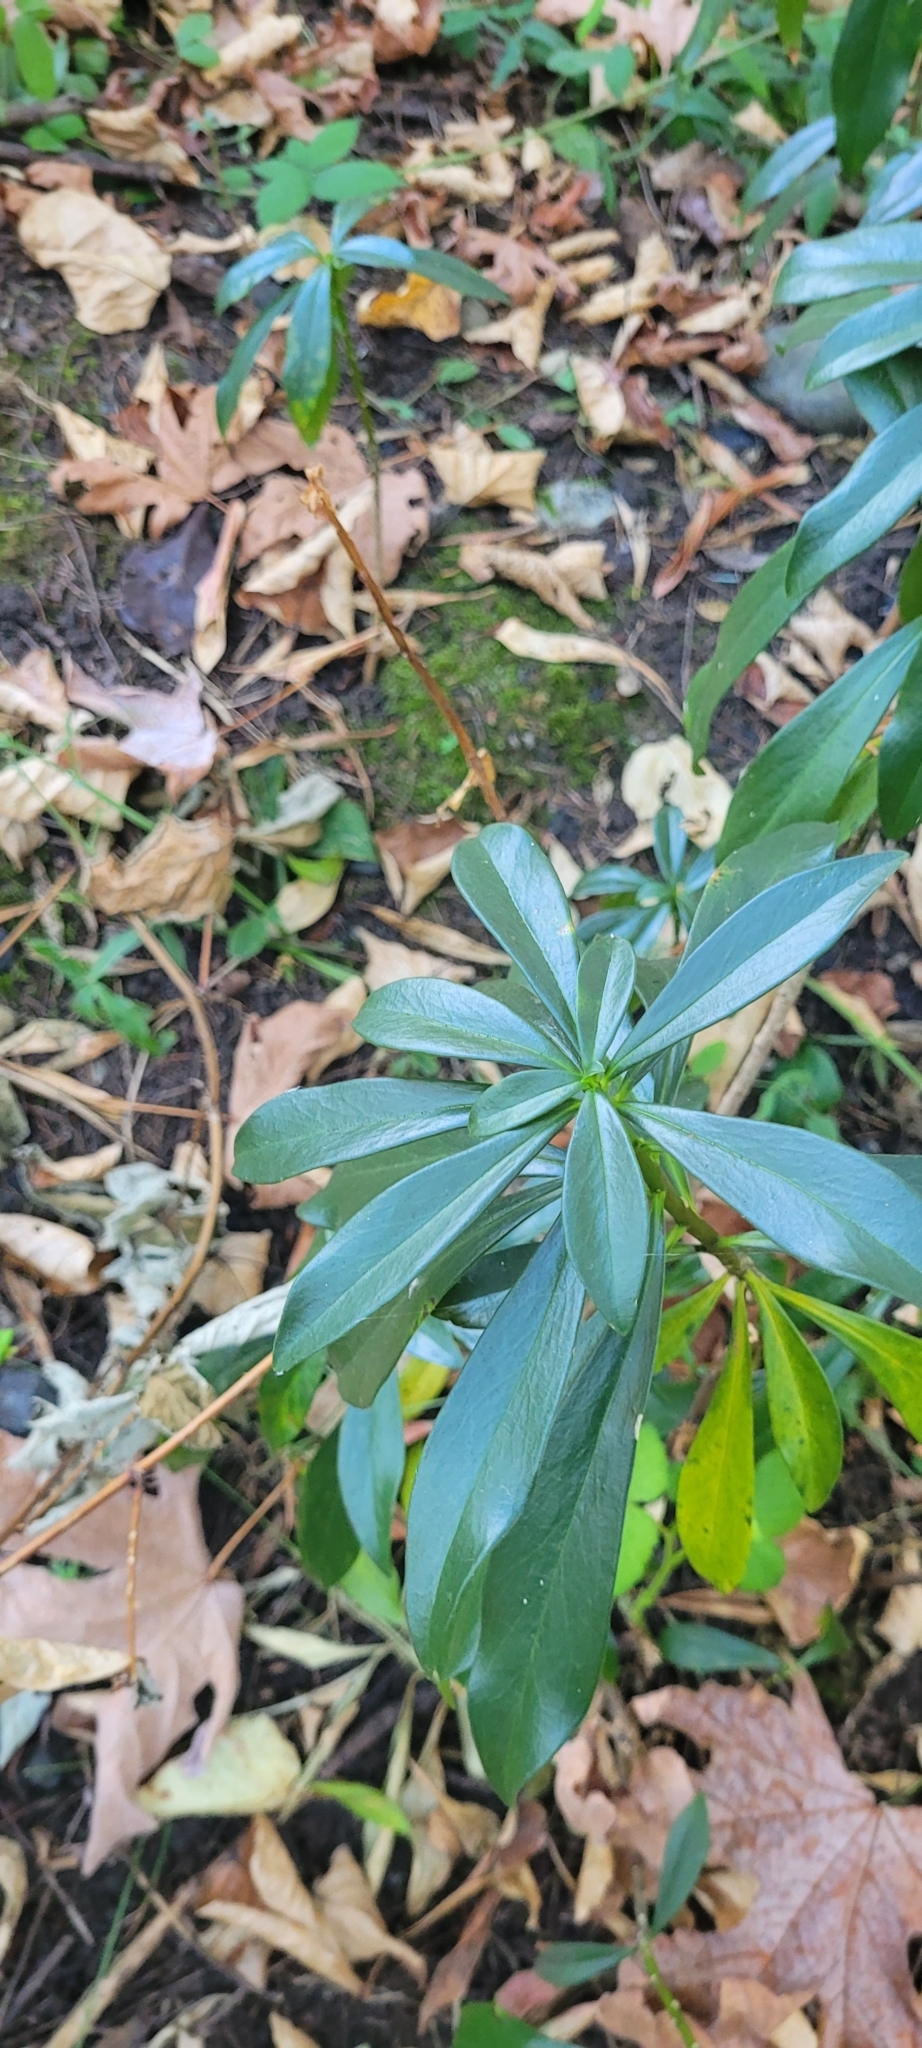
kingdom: Plantae
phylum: Tracheophyta
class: Magnoliopsida
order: Malvales
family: Thymelaeaceae
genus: Daphne
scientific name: Daphne laureola
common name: Spurge-laurel
